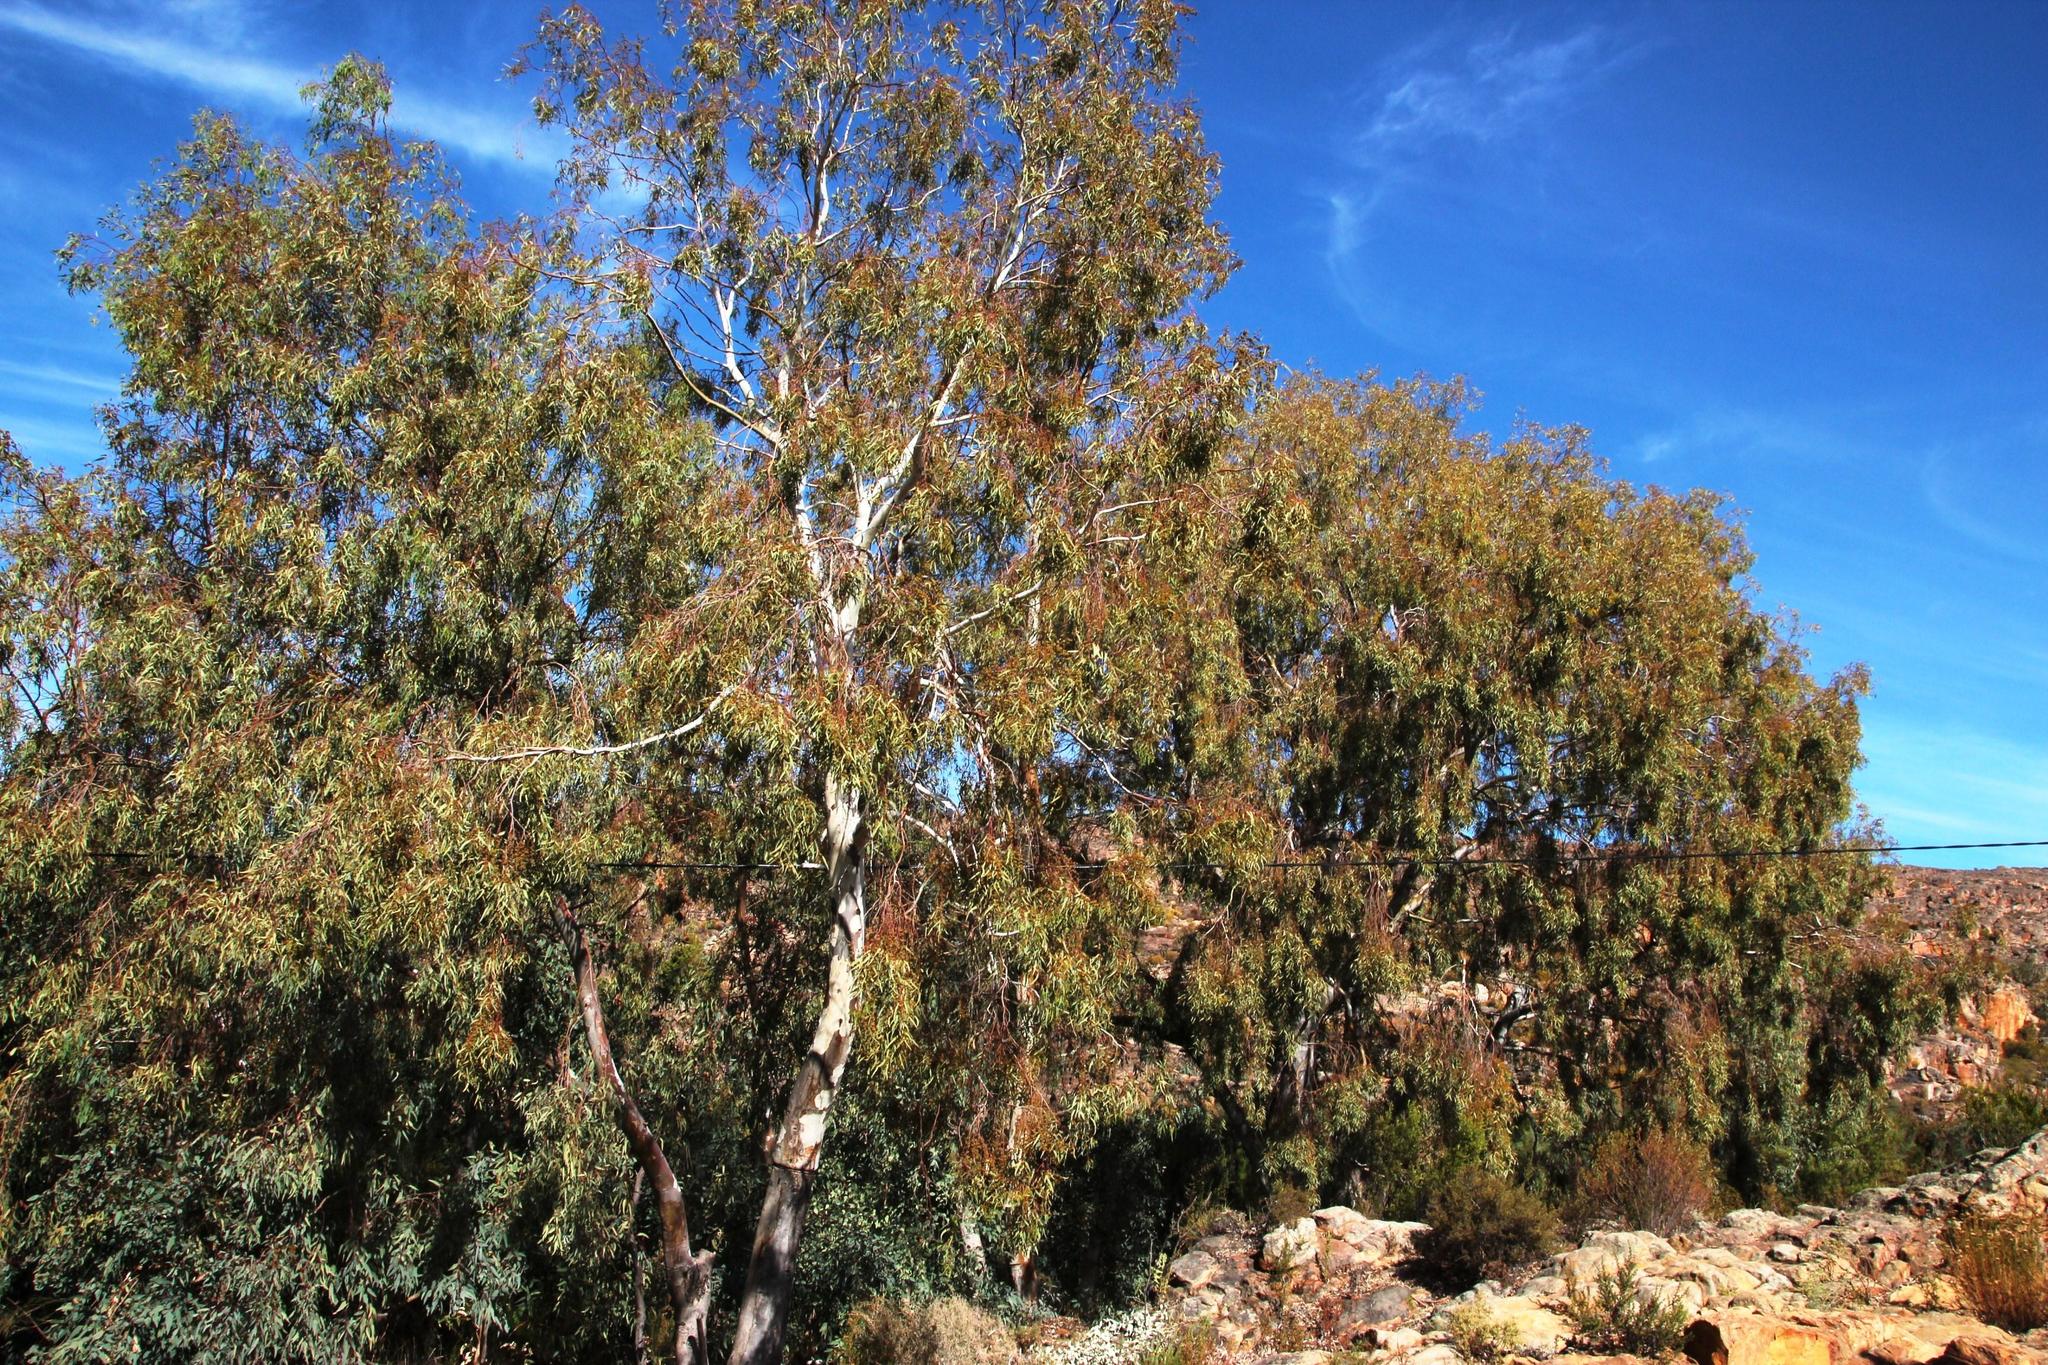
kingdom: Plantae
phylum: Tracheophyta
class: Magnoliopsida
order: Myrtales
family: Myrtaceae
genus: Eucalyptus
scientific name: Eucalyptus camaldulensis
